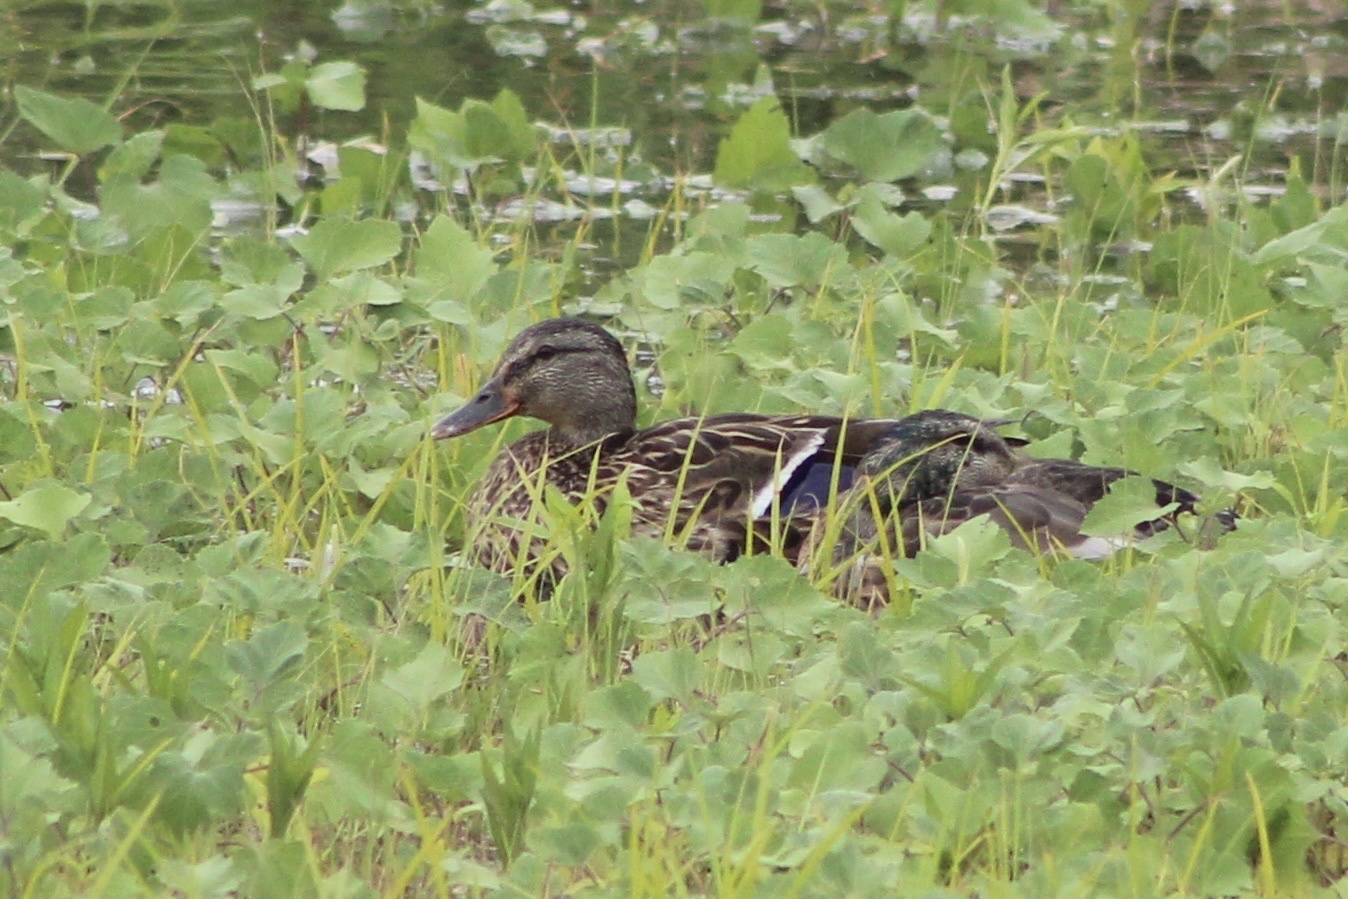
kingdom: Animalia
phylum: Chordata
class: Aves
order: Anseriformes
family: Anatidae
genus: Anas
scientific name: Anas platyrhynchos
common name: Mallard
